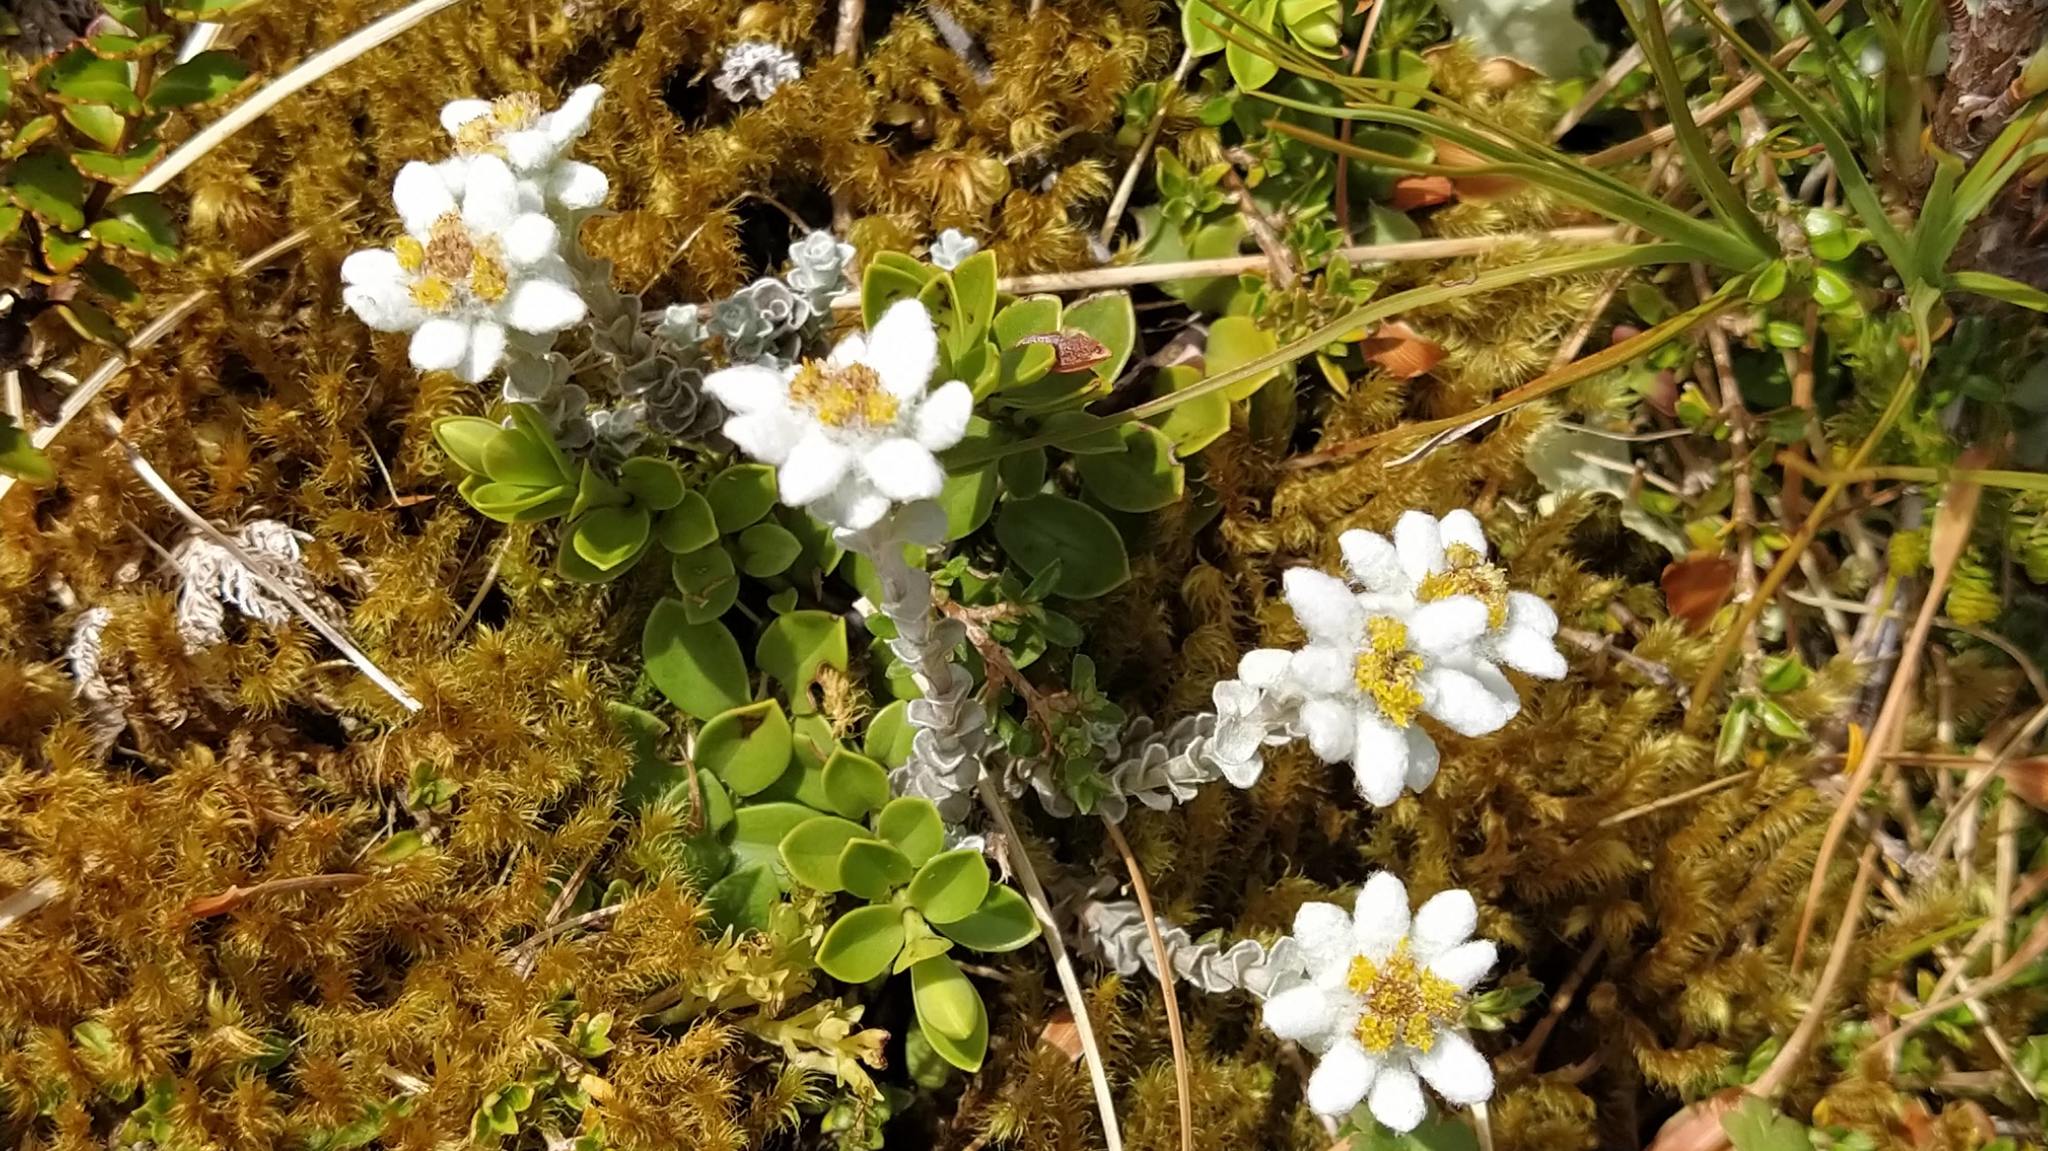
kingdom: Plantae
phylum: Tracheophyta
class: Magnoliopsida
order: Asterales
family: Asteraceae
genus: Leucogenes
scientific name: Leucogenes grandiceps
